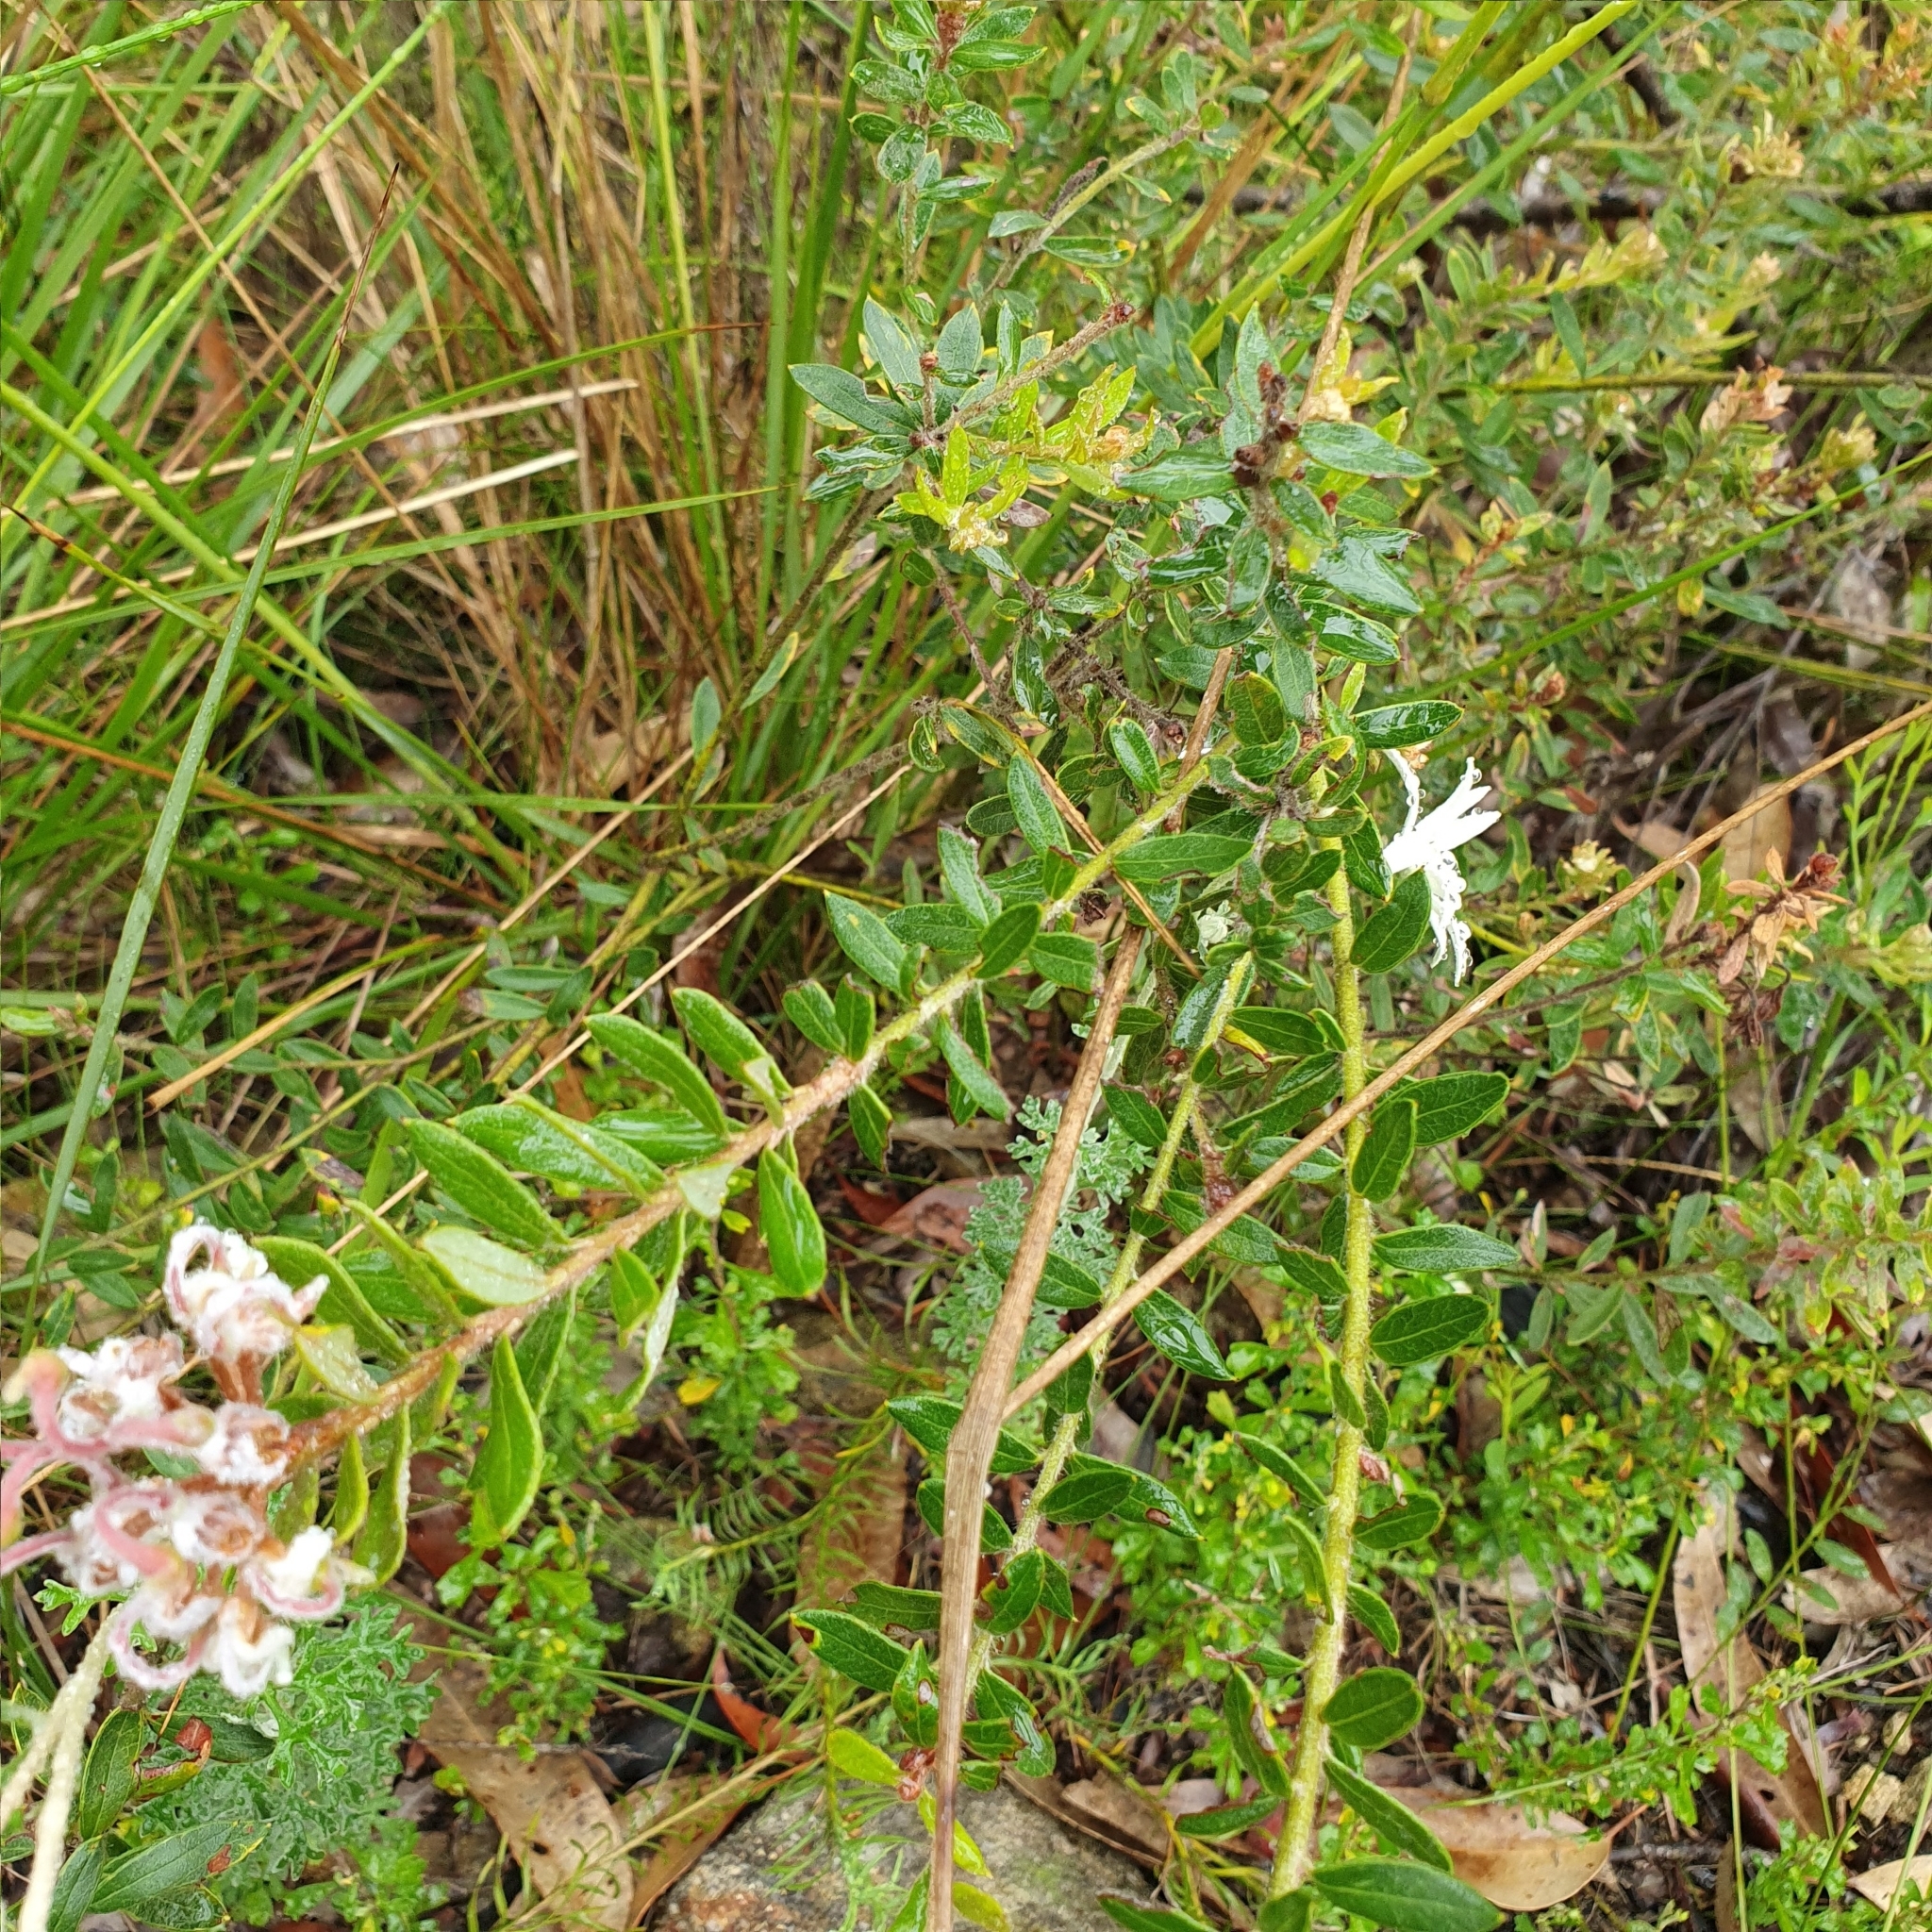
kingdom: Plantae
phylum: Tracheophyta
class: Magnoliopsida
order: Proteales
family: Proteaceae
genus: Grevillea
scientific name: Grevillea buxifolia
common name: Grey spiderflower
